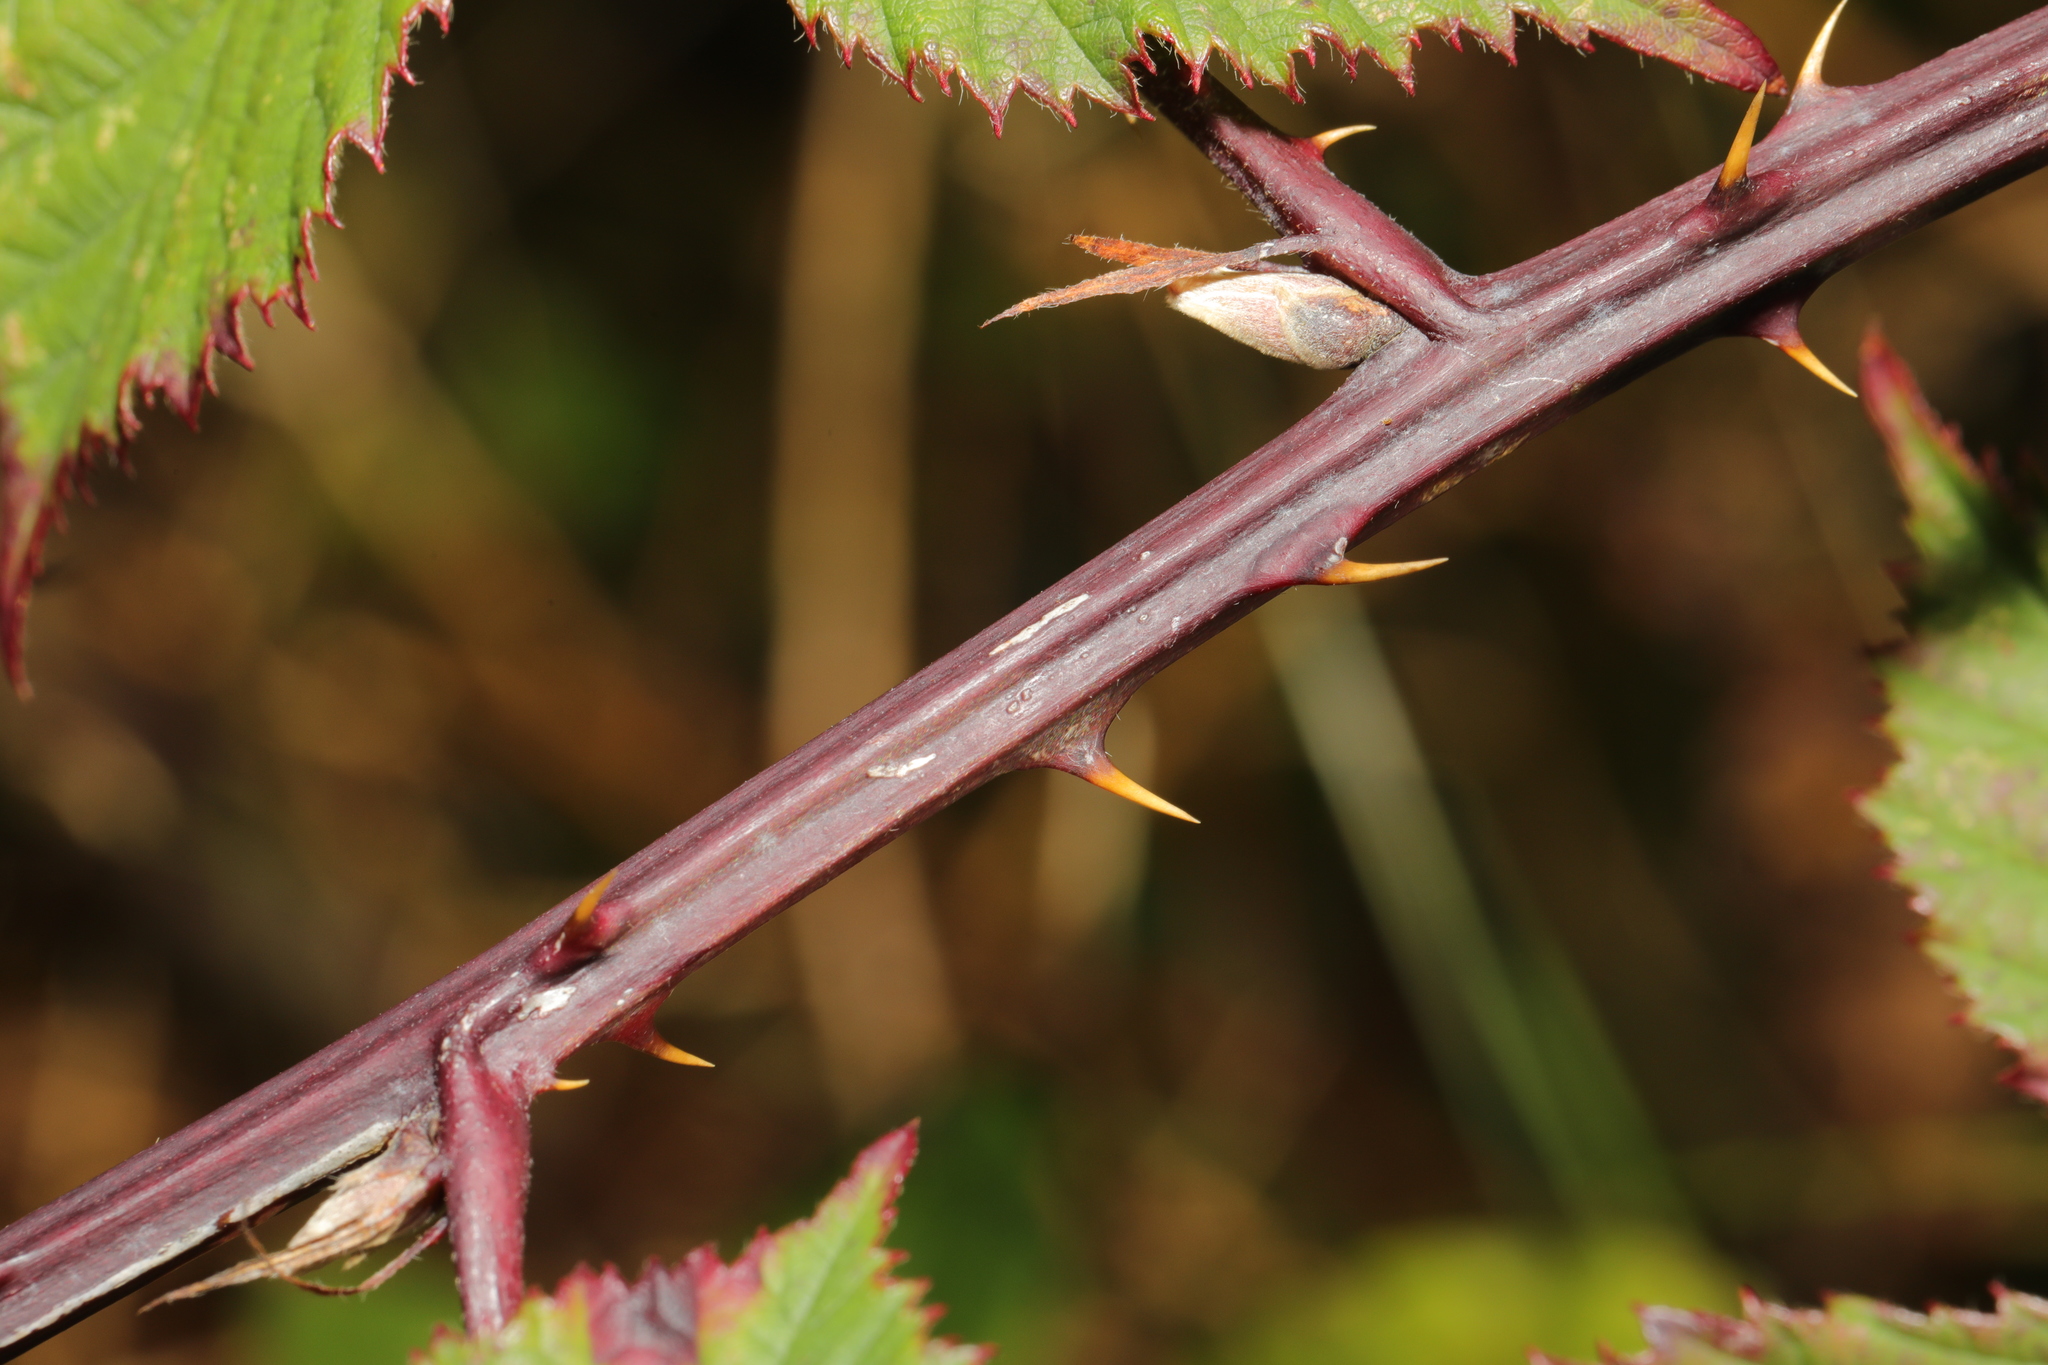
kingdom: Plantae
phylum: Tracheophyta
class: Magnoliopsida
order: Rosales
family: Rosaceae
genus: Rubus
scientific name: Rubus nemoralis
